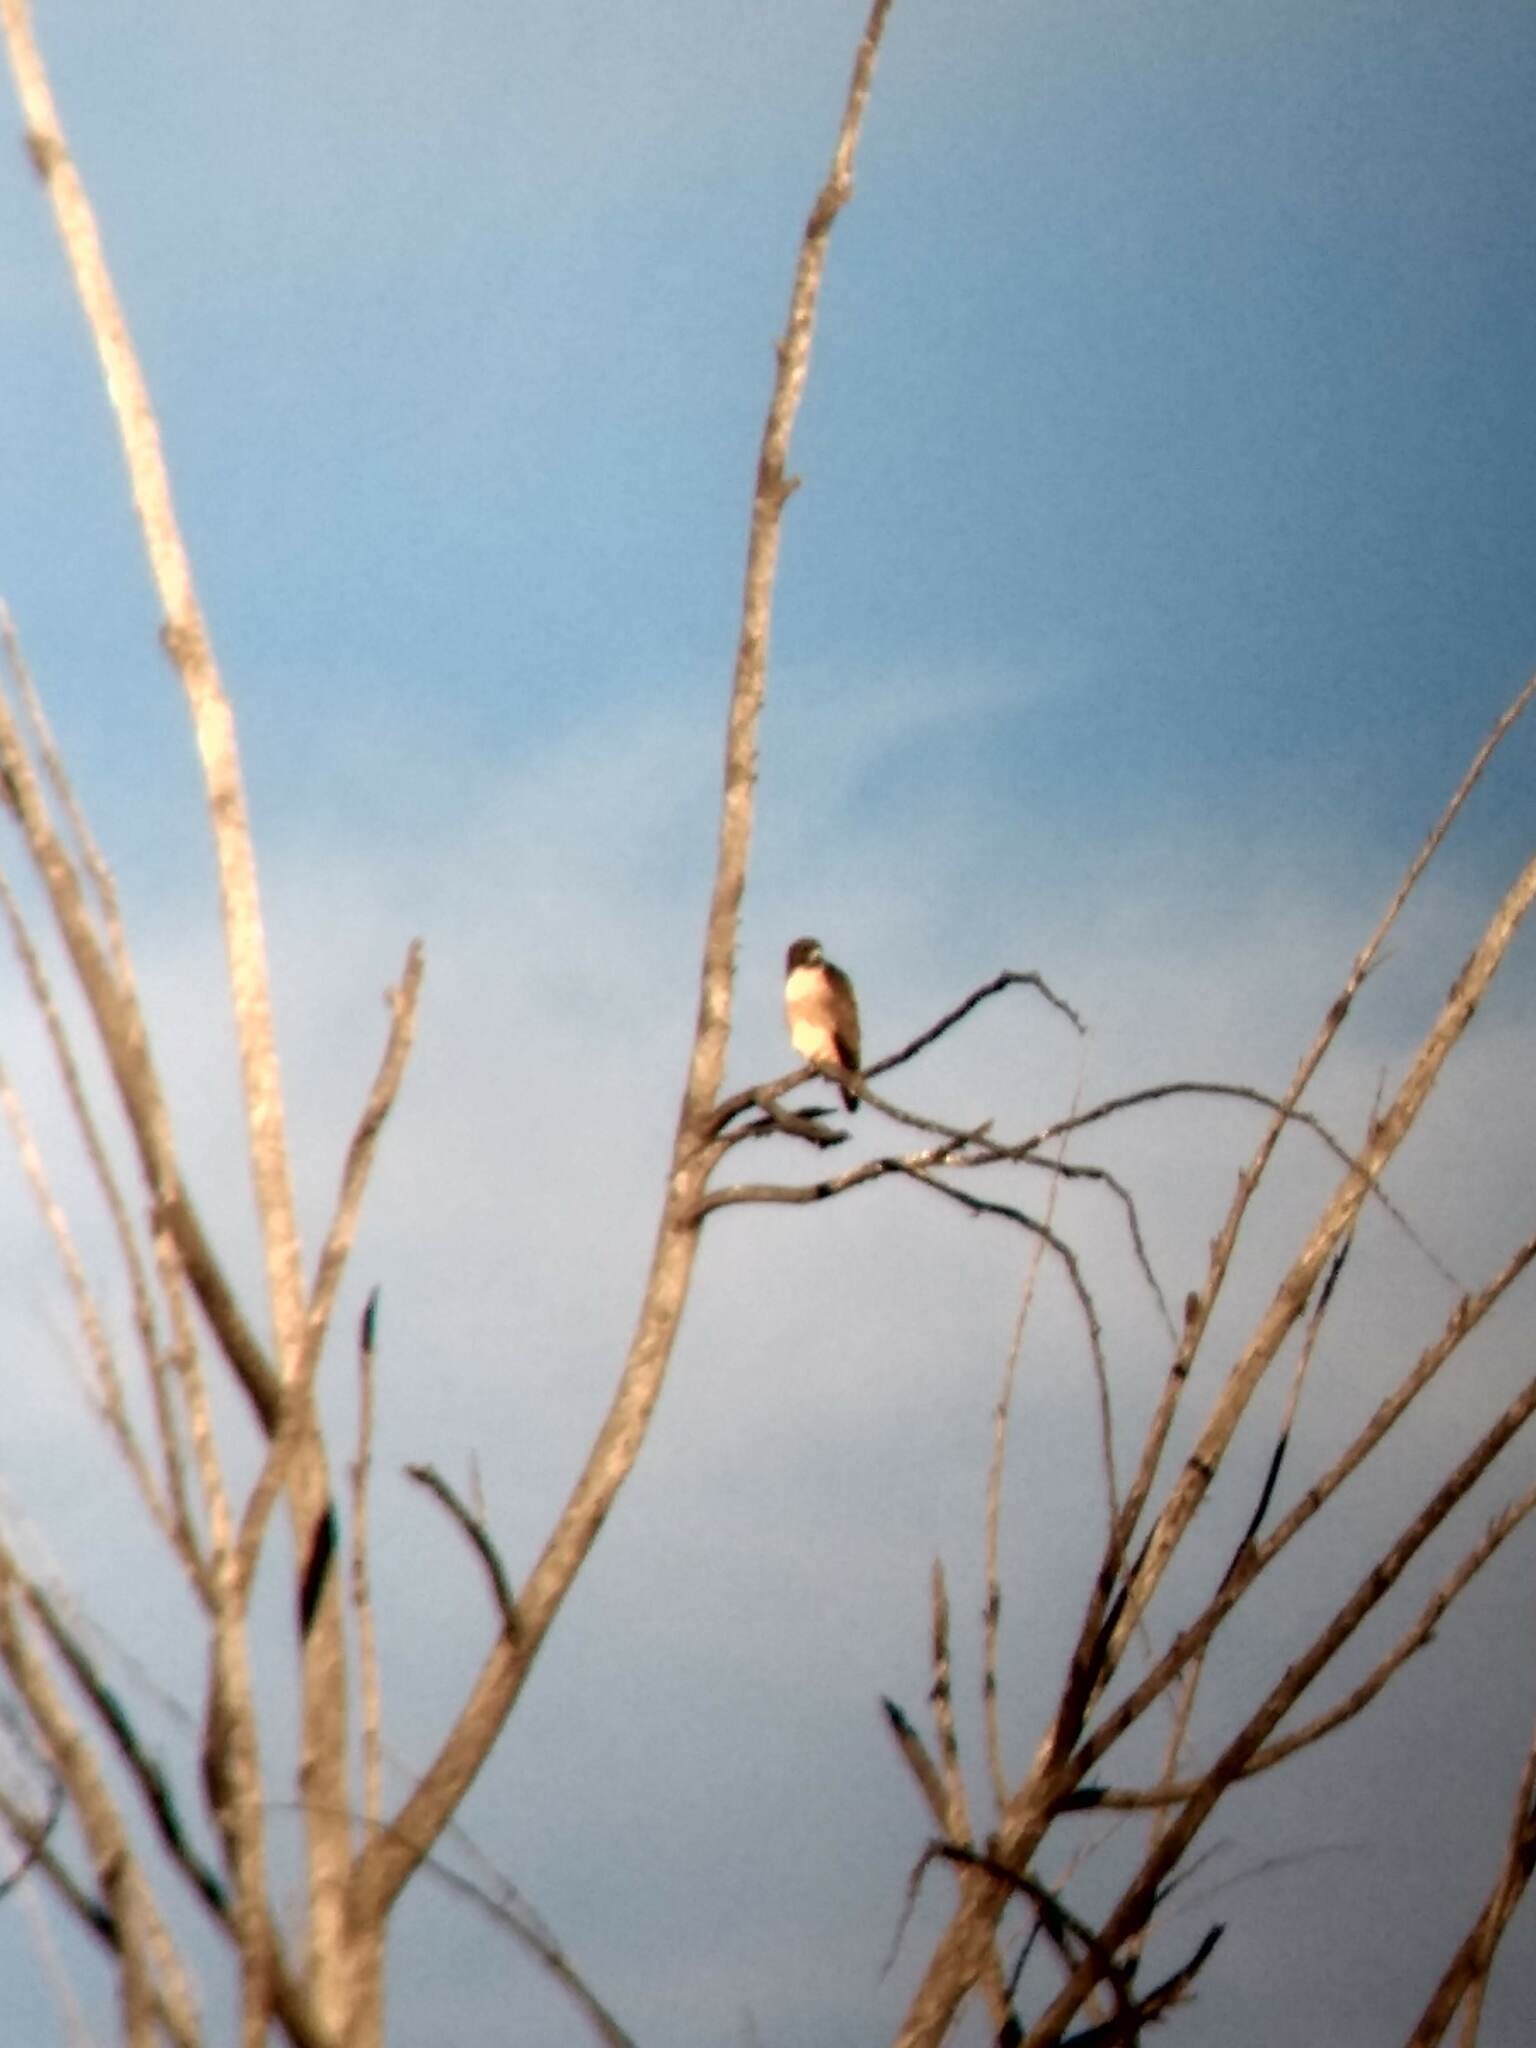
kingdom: Animalia
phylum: Chordata
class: Aves
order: Accipitriformes
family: Accipitridae
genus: Buteo
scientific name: Buteo jamaicensis
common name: Red-tailed hawk
